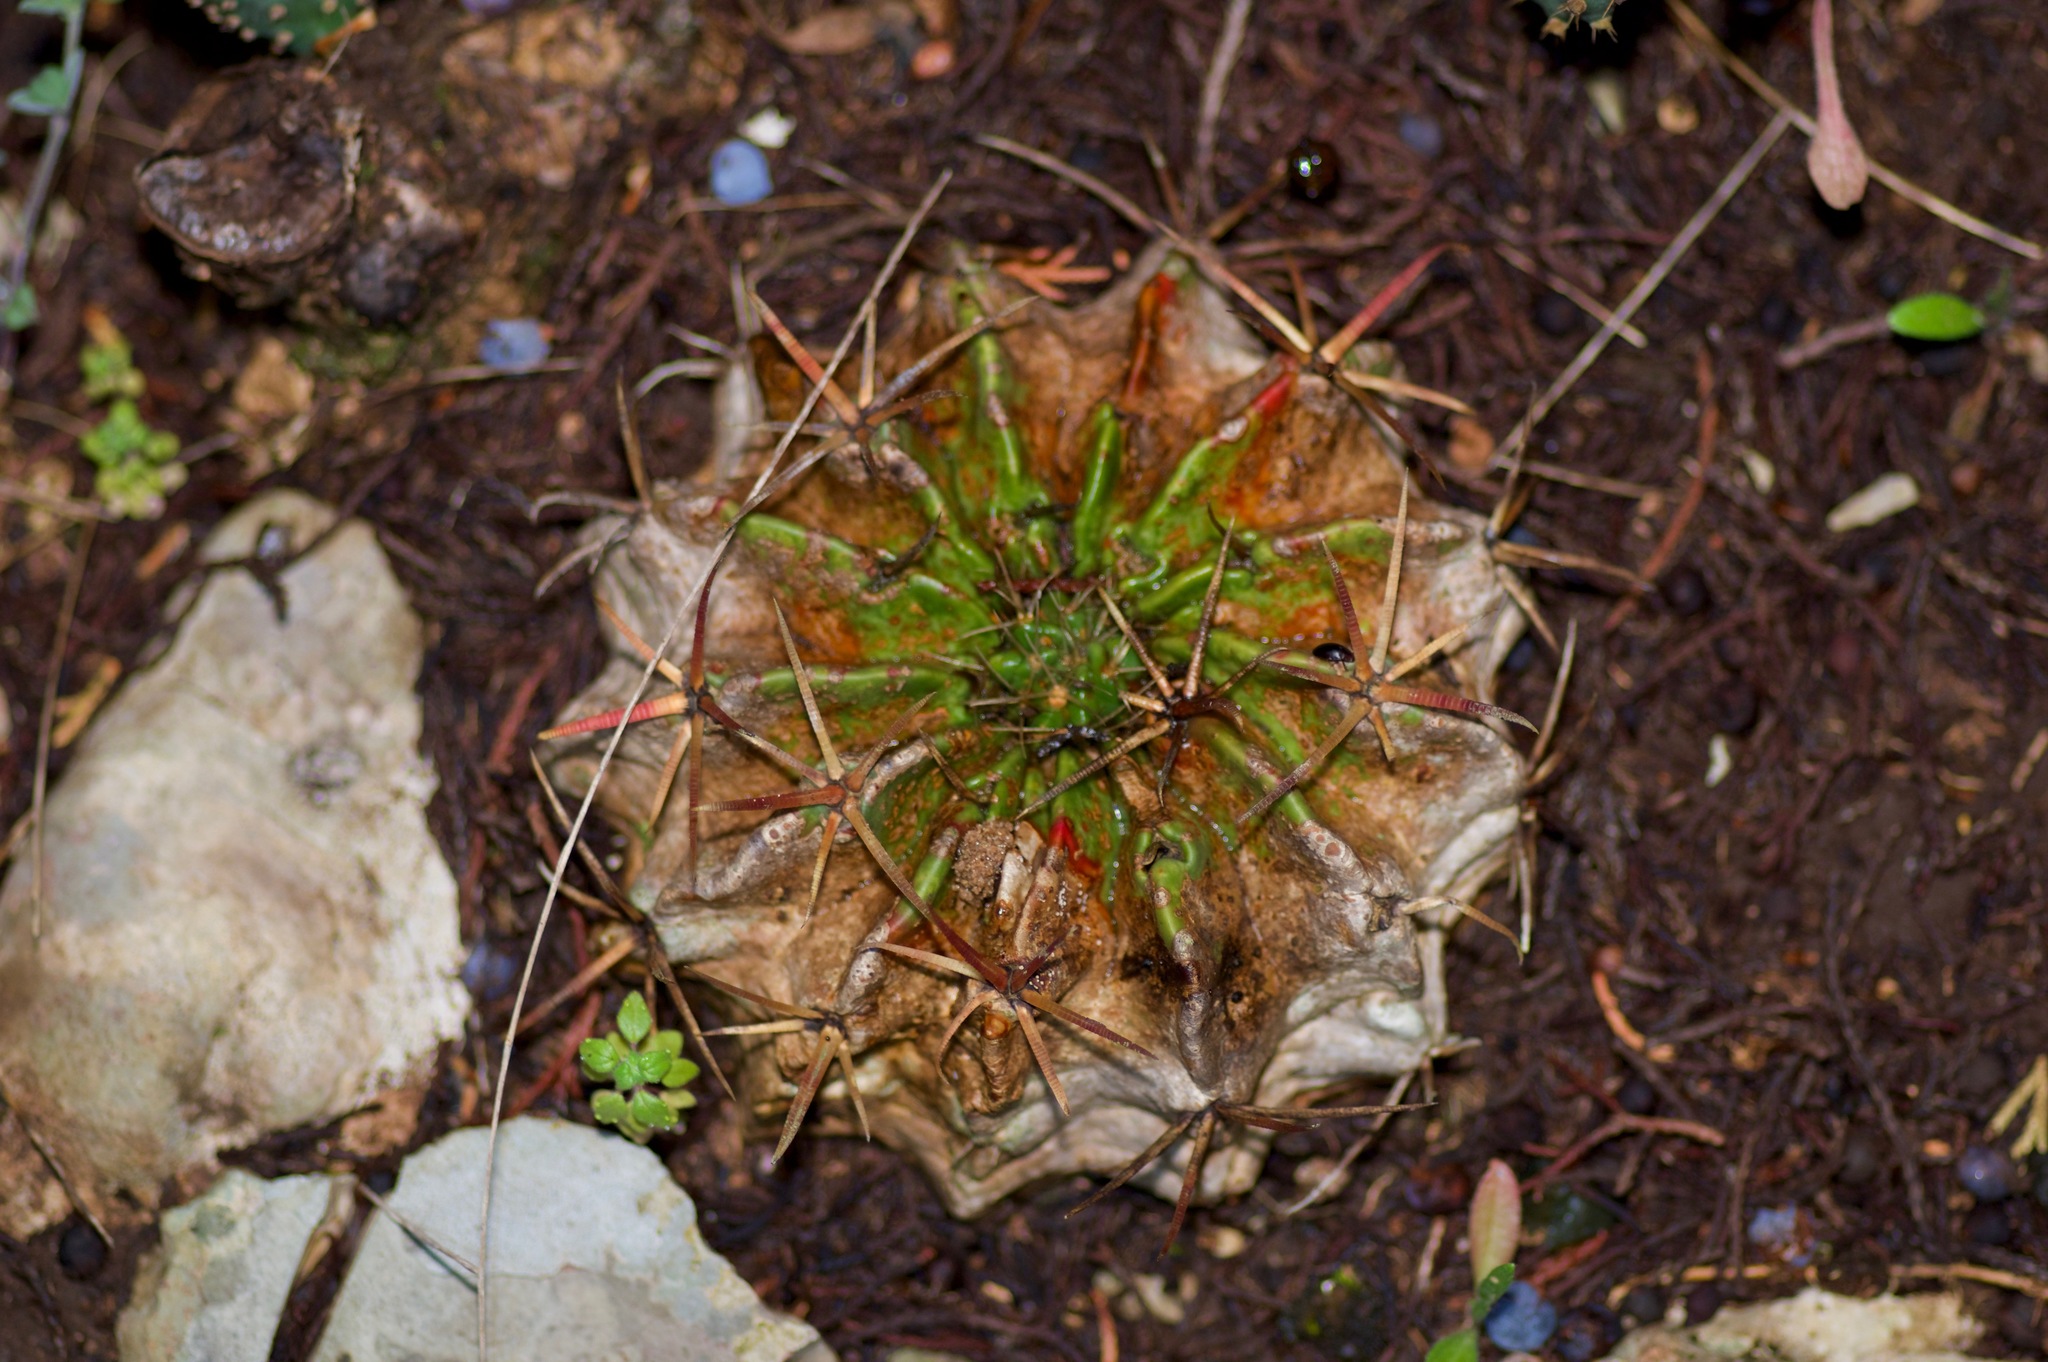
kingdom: Plantae
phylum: Tracheophyta
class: Magnoliopsida
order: Caryophyllales
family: Cactaceae
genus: Echinocactus
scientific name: Echinocactus texensis
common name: Devil's pincushion
